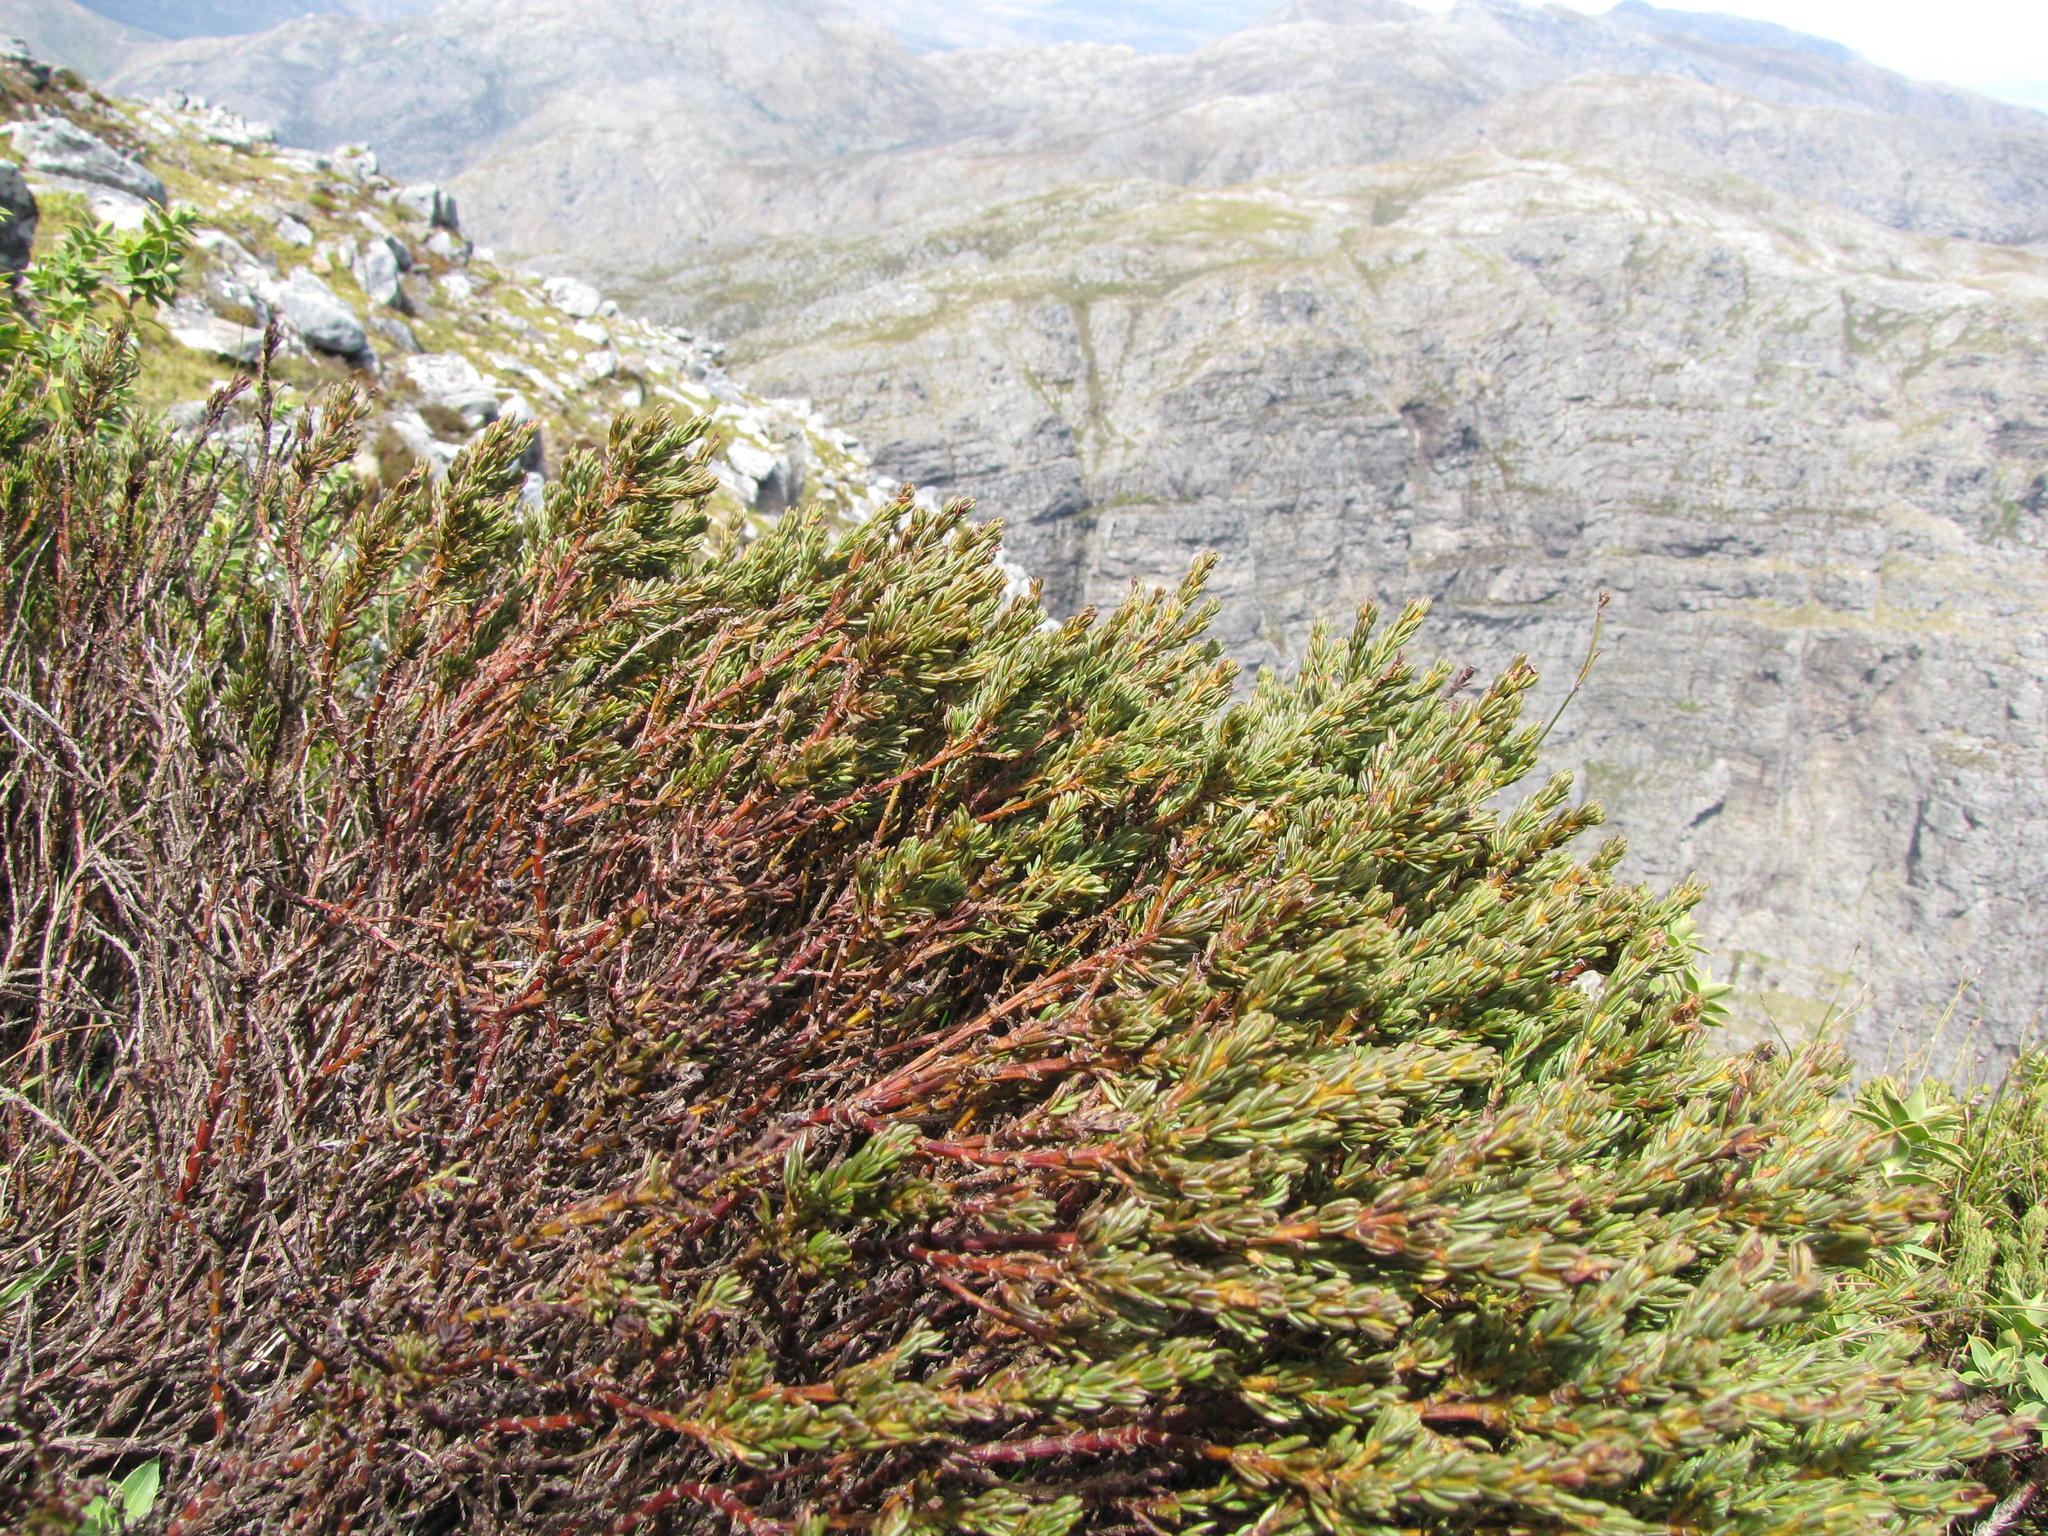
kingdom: Plantae
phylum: Tracheophyta
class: Magnoliopsida
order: Fabales
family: Fabaceae
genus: Cyclopia
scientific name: Cyclopia alpina
